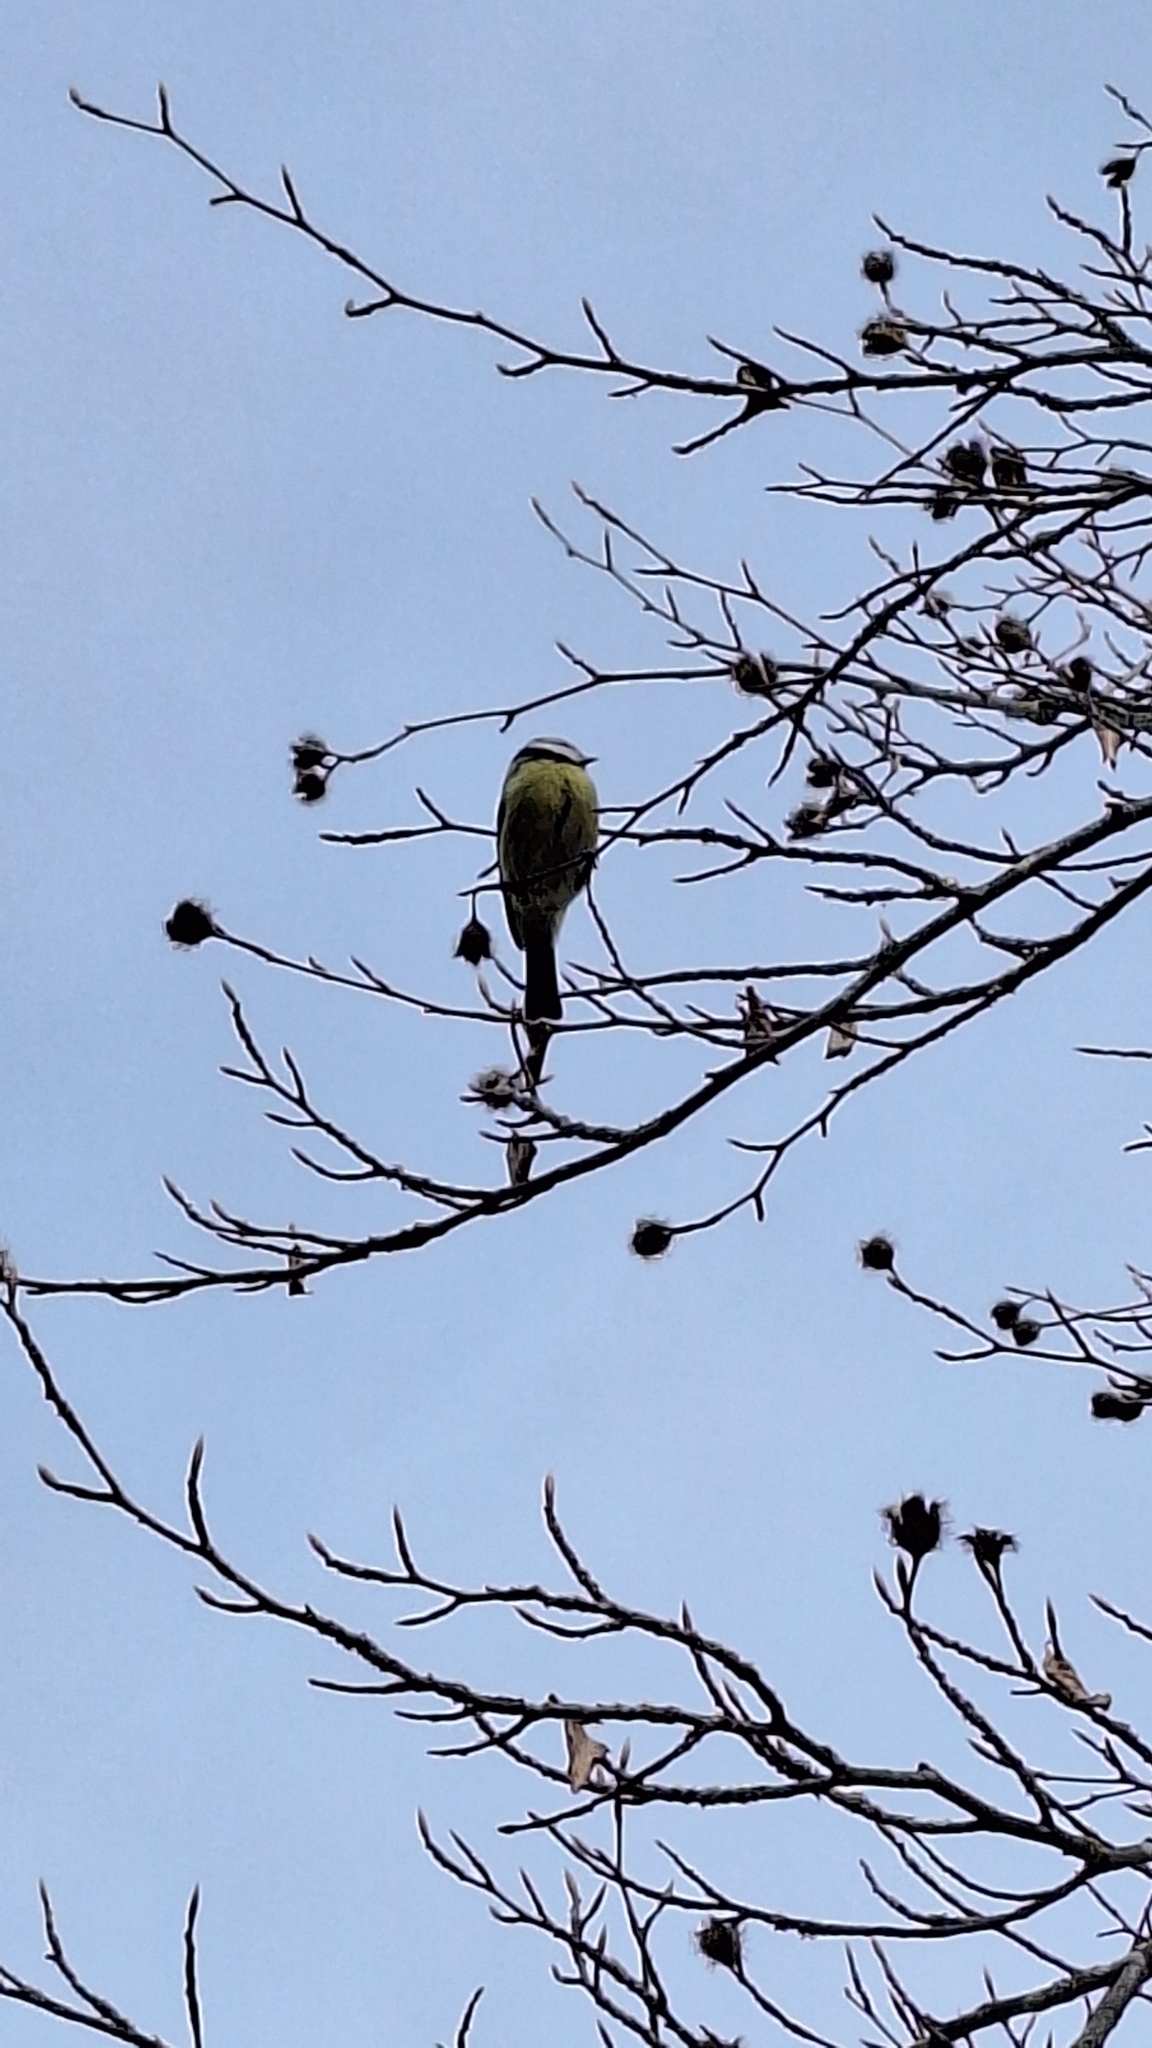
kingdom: Animalia
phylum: Chordata
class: Aves
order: Passeriformes
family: Paridae
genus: Cyanistes
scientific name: Cyanistes caeruleus
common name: Eurasian blue tit
